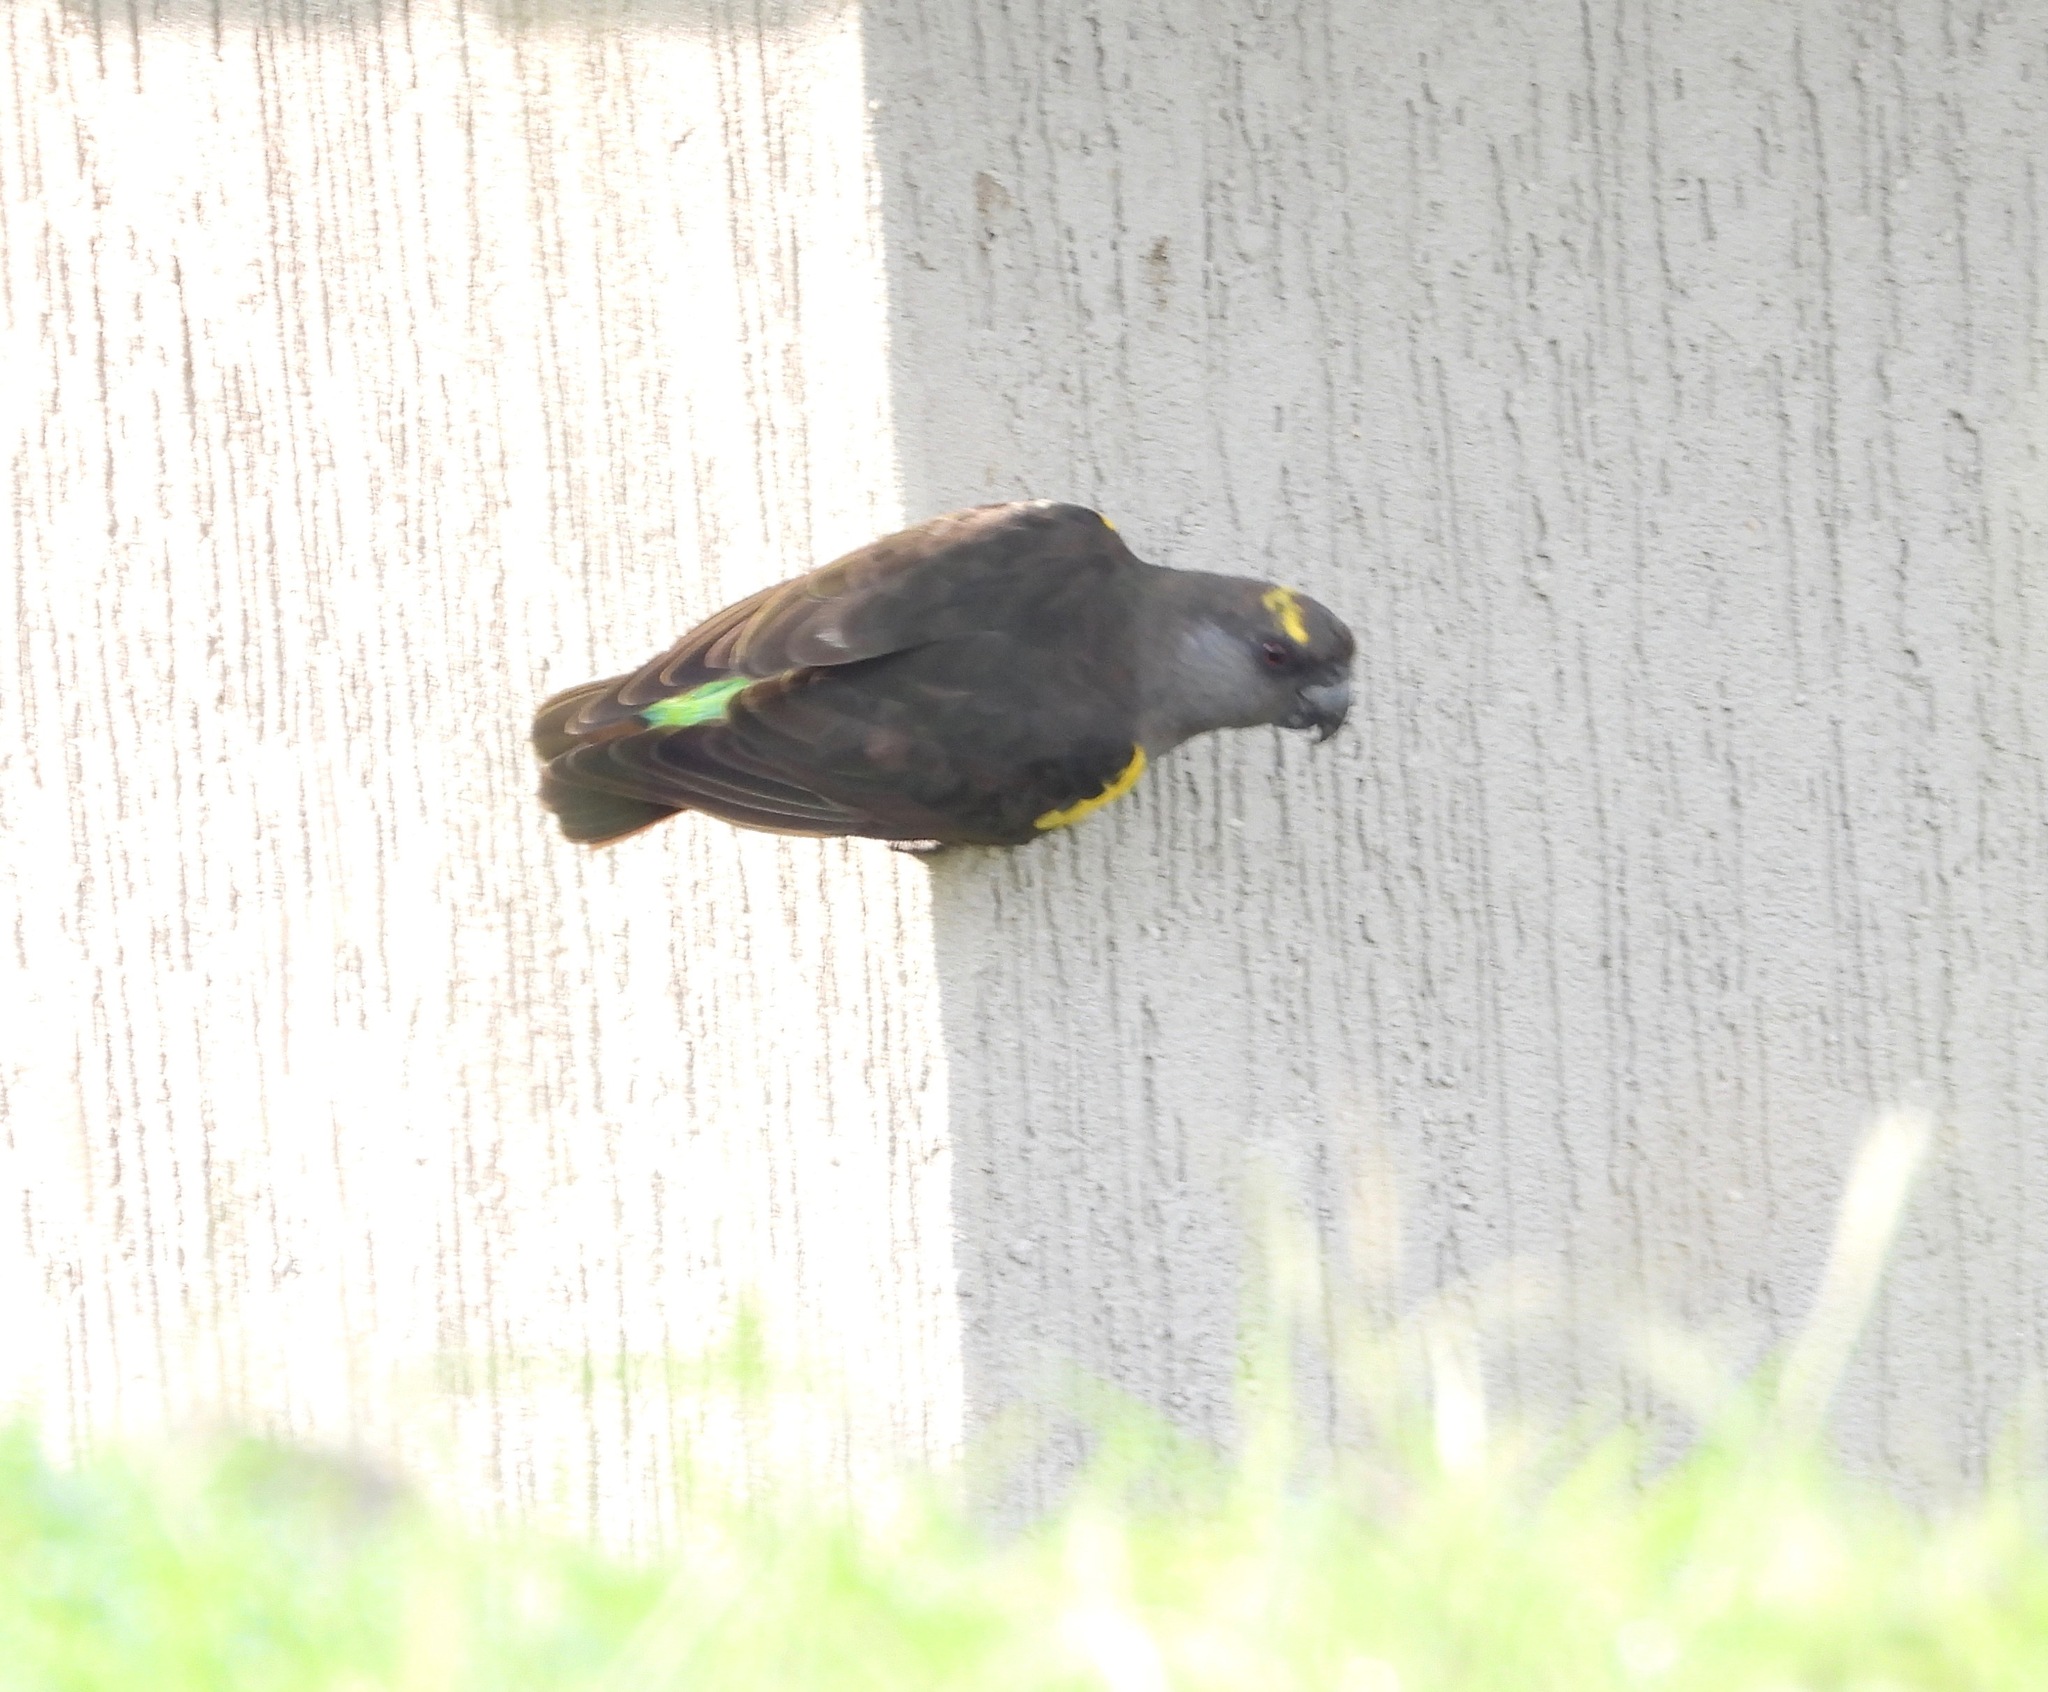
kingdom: Animalia
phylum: Chordata
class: Aves
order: Psittaciformes
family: Psittacidae
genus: Poicephalus
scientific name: Poicephalus meyeri
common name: Meyer's parrot
